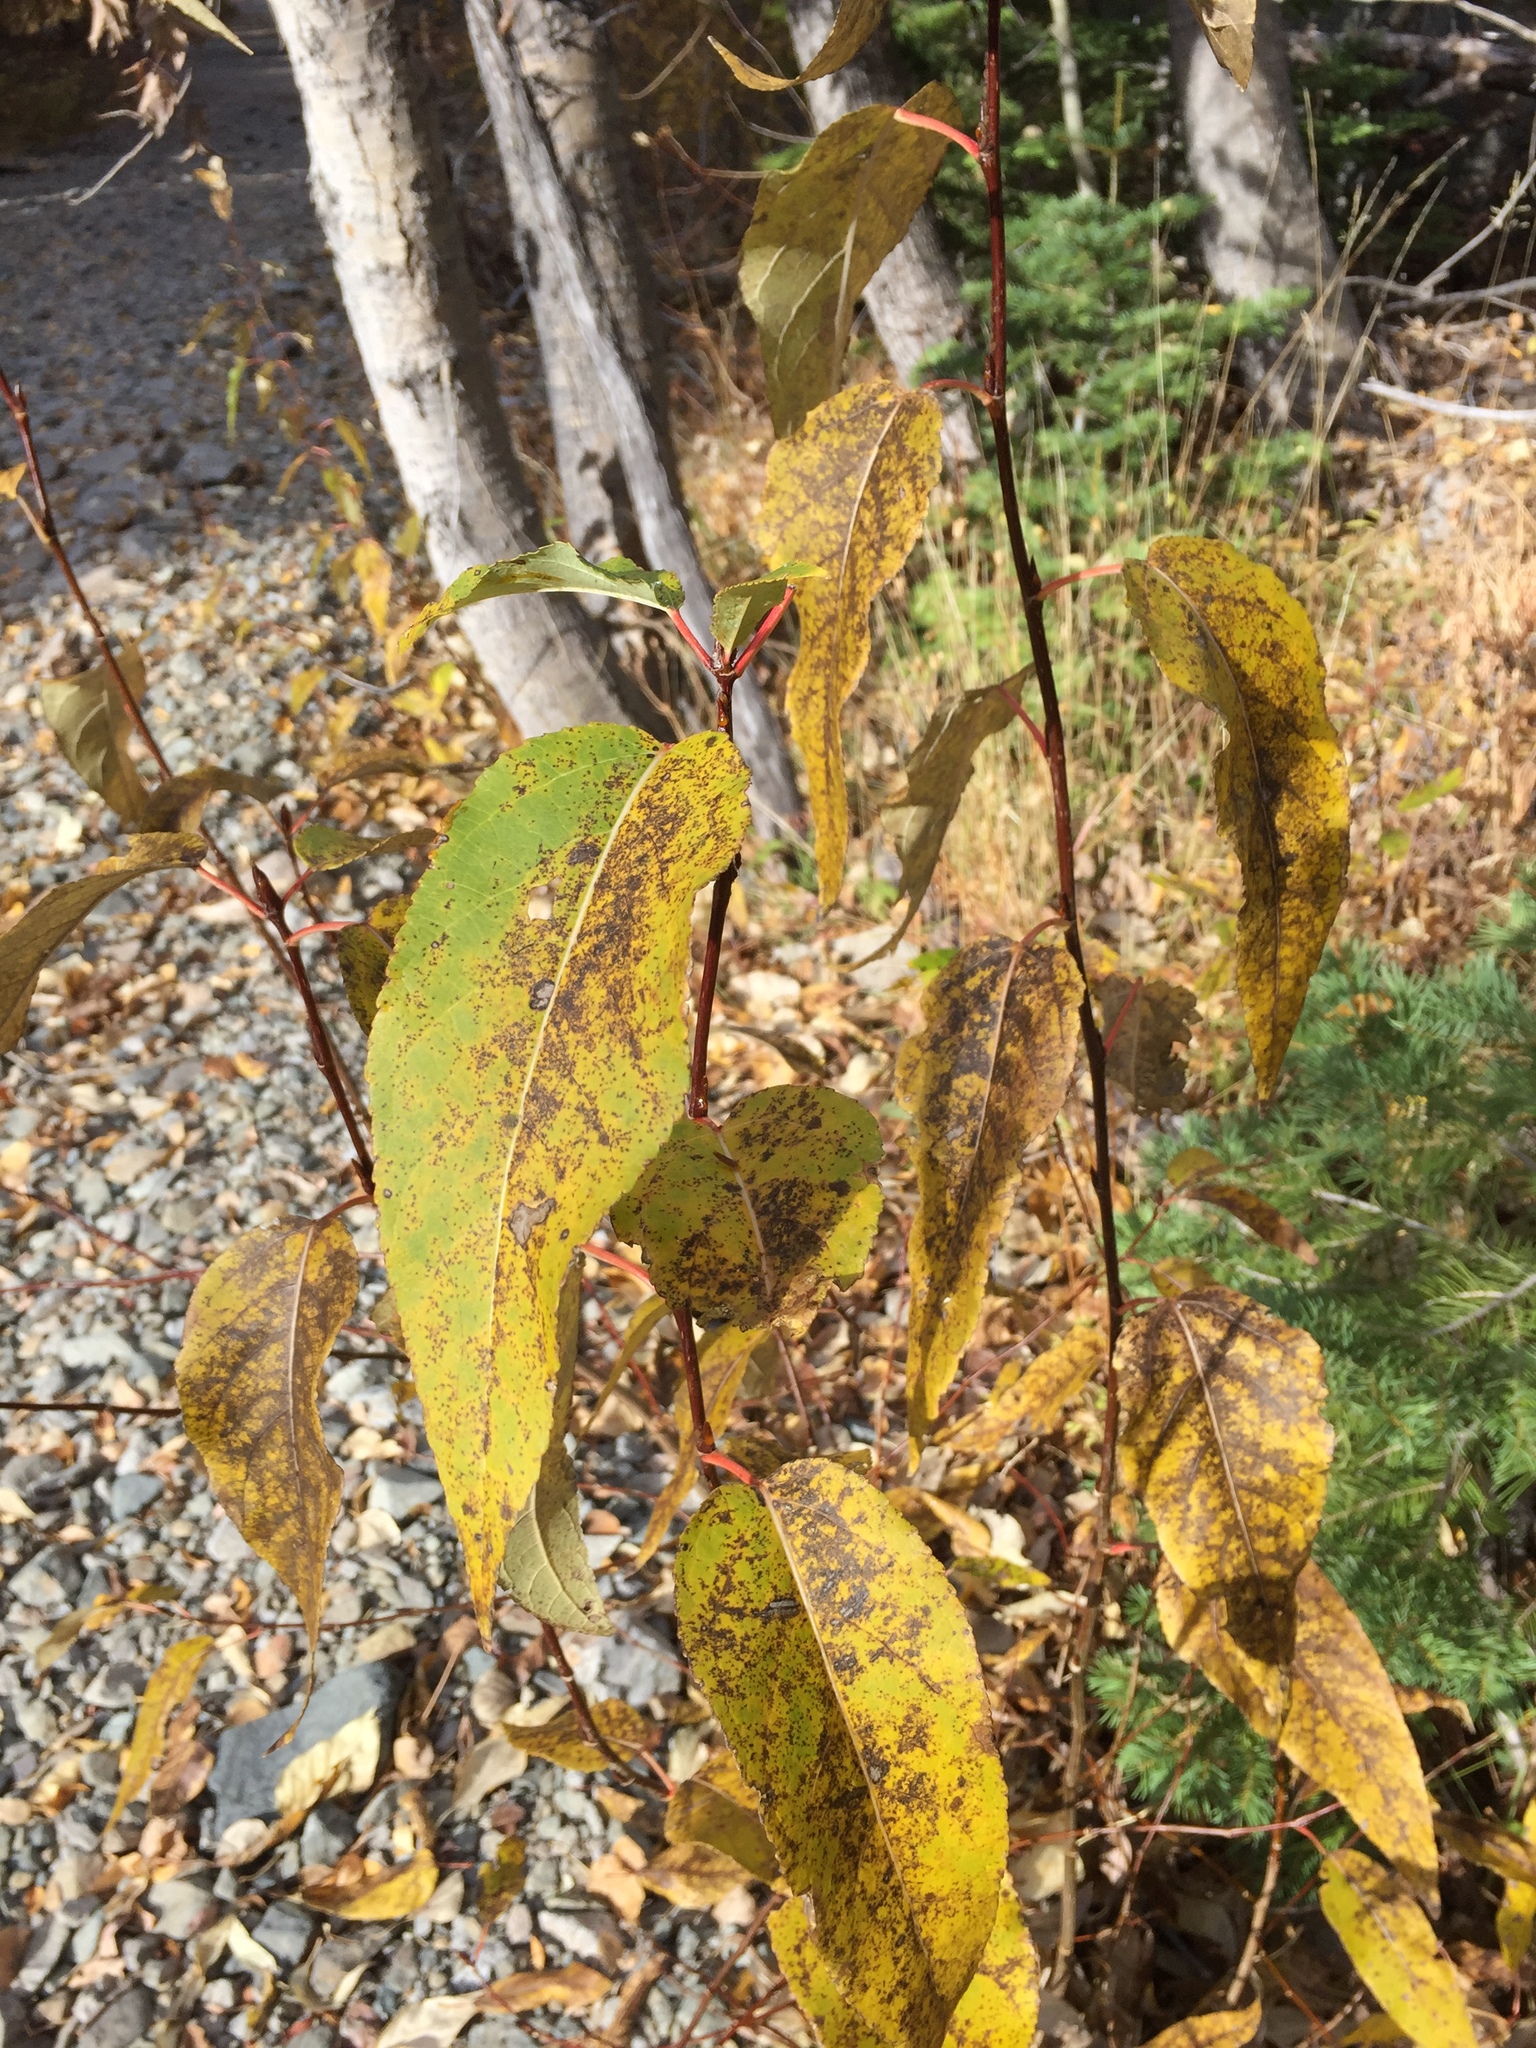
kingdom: Plantae
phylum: Tracheophyta
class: Magnoliopsida
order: Malpighiales
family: Salicaceae
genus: Populus
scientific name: Populus trichocarpa
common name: Black cottonwood
